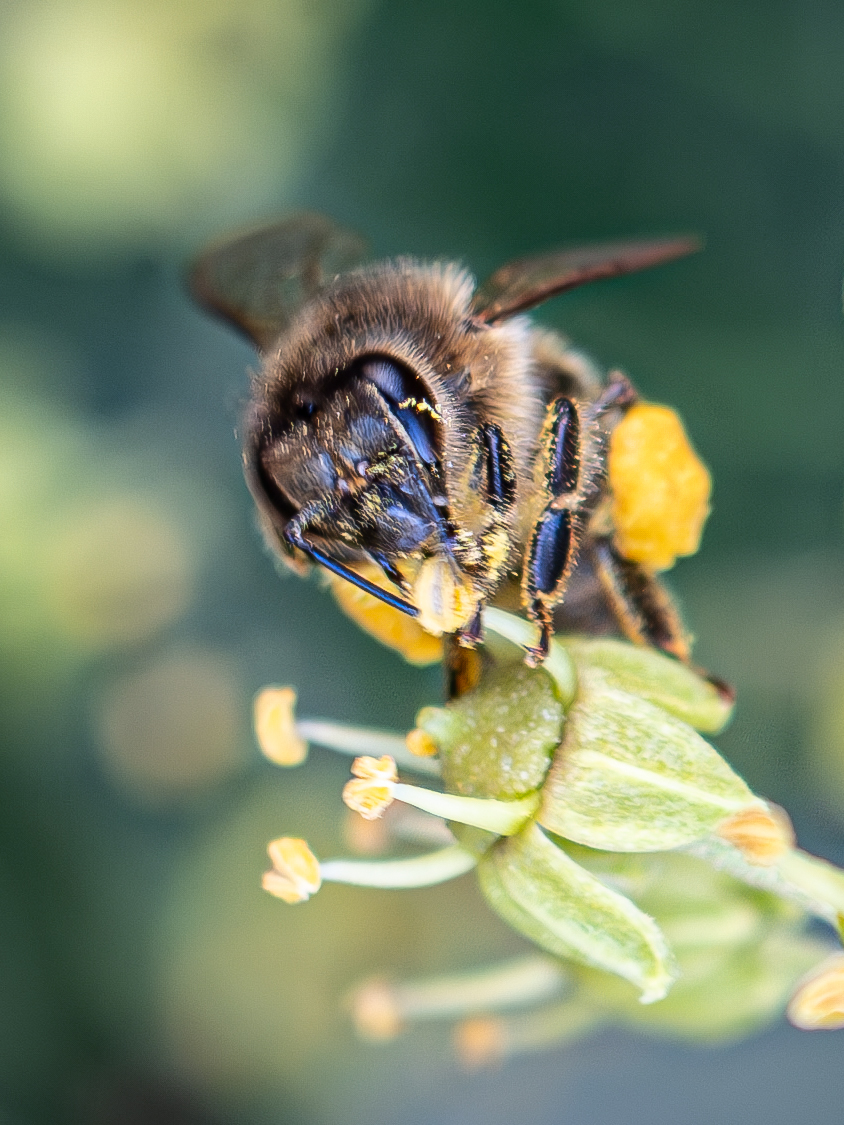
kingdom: Animalia
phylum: Arthropoda
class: Insecta
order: Hymenoptera
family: Apidae
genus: Apis
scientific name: Apis mellifera
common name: Honey bee
